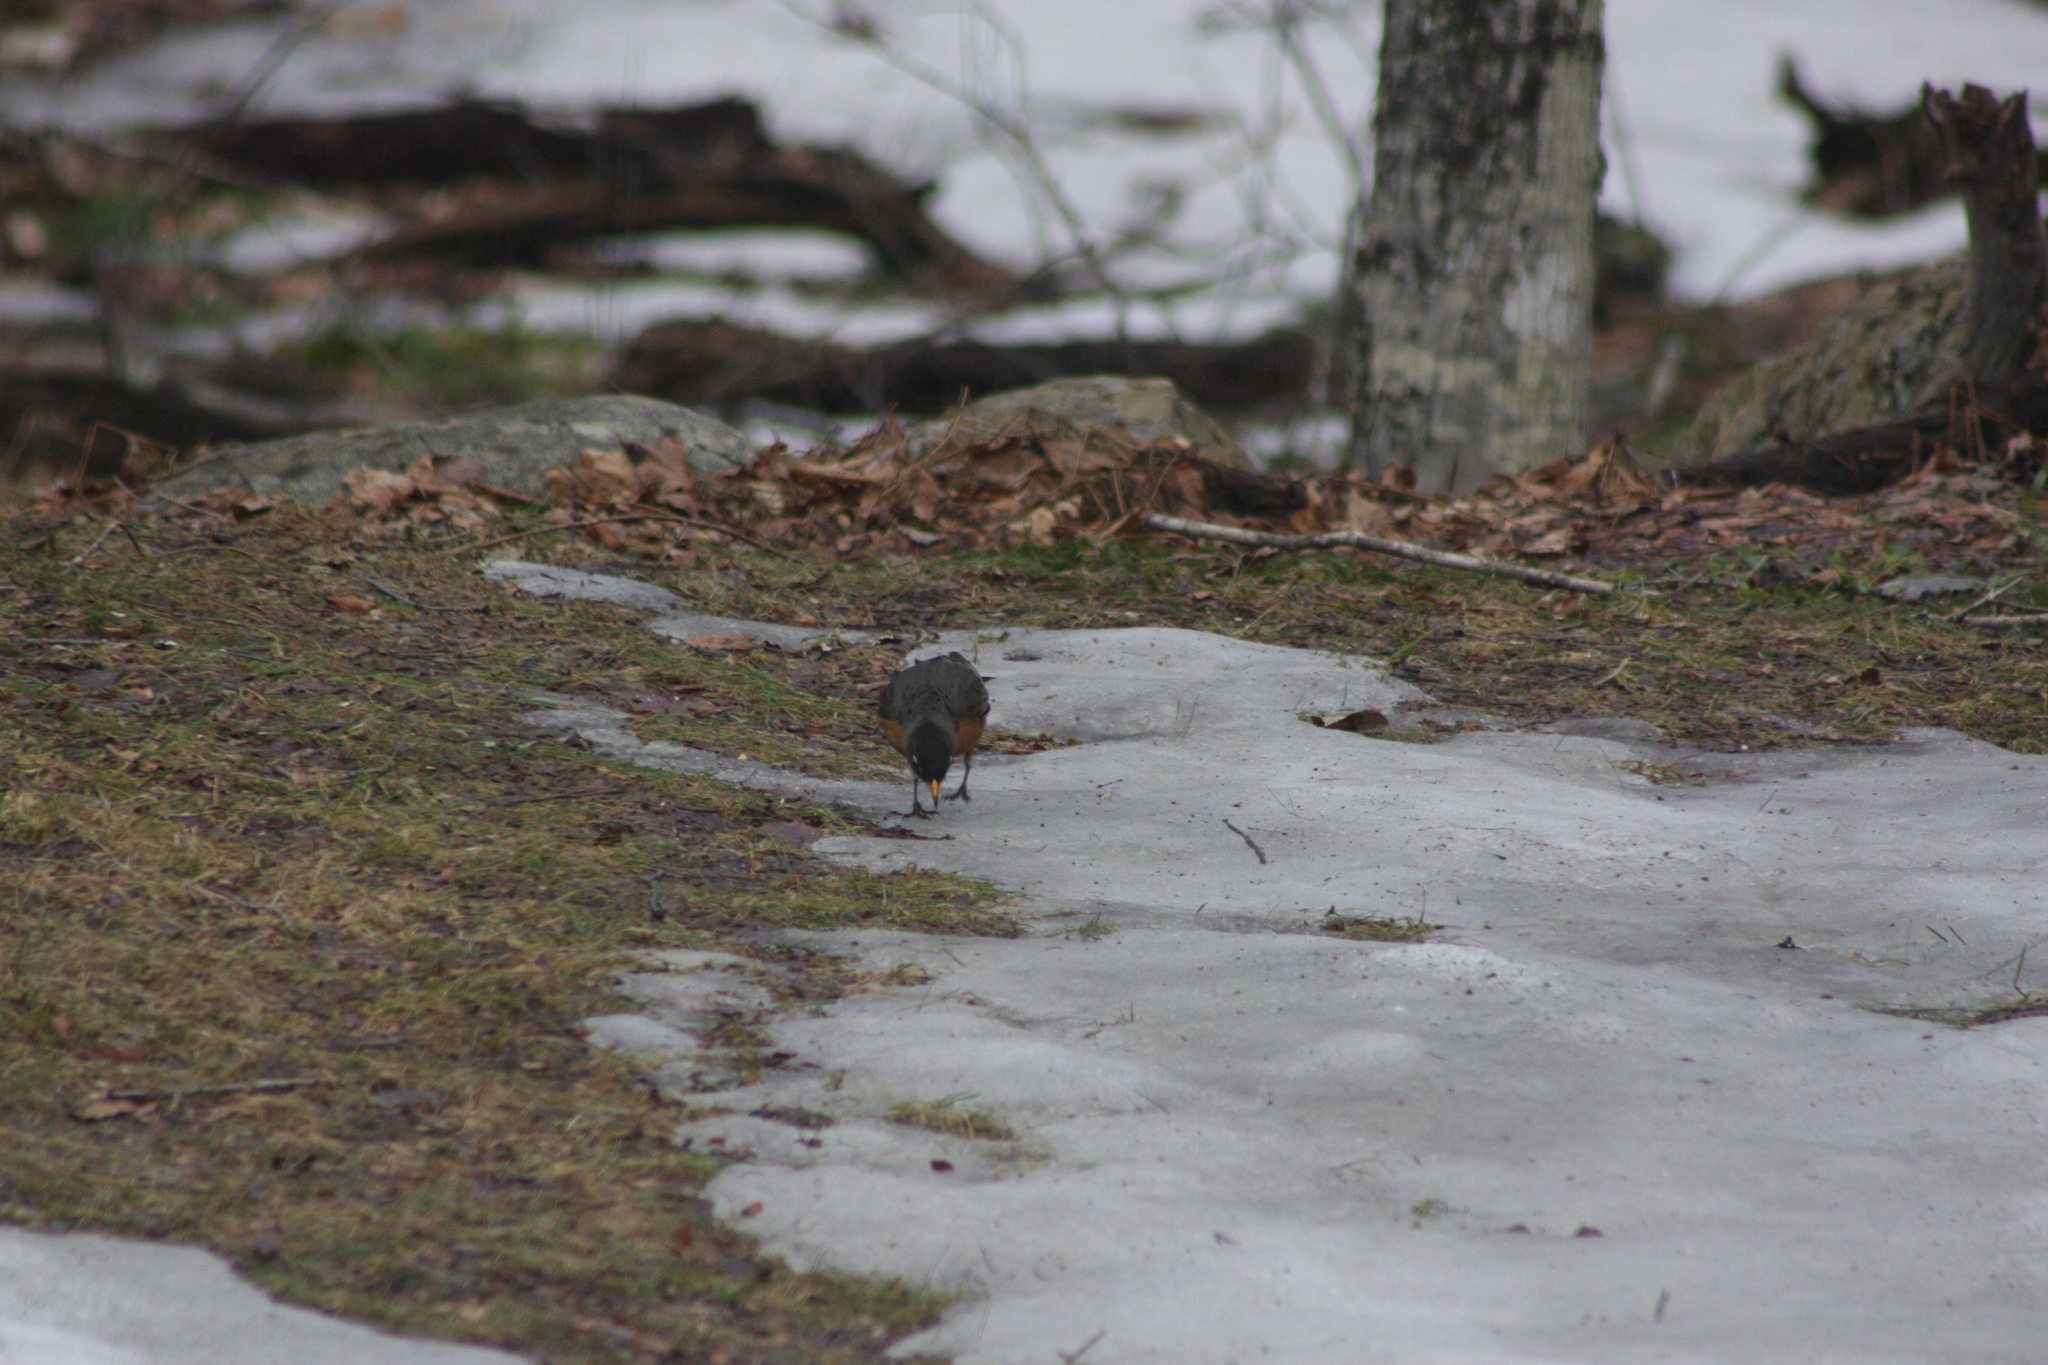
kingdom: Animalia
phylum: Chordata
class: Aves
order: Passeriformes
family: Turdidae
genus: Turdus
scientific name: Turdus migratorius
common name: American robin
